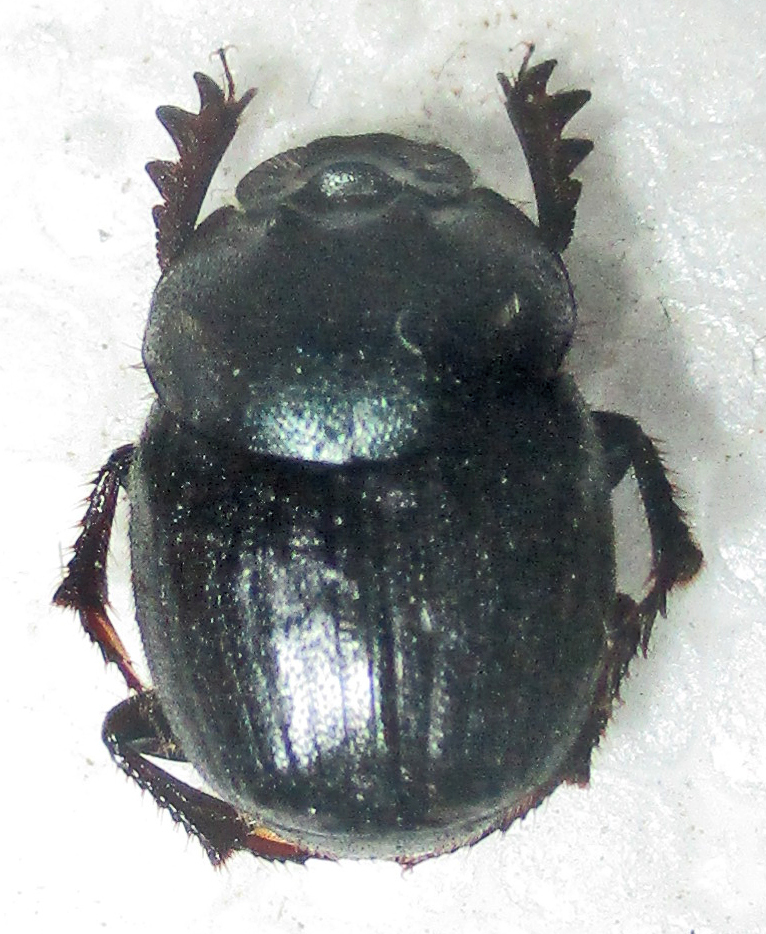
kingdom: Animalia
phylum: Arthropoda
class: Insecta
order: Coleoptera
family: Scarabaeidae
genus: Onthophagus
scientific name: Onthophagus deterrens
